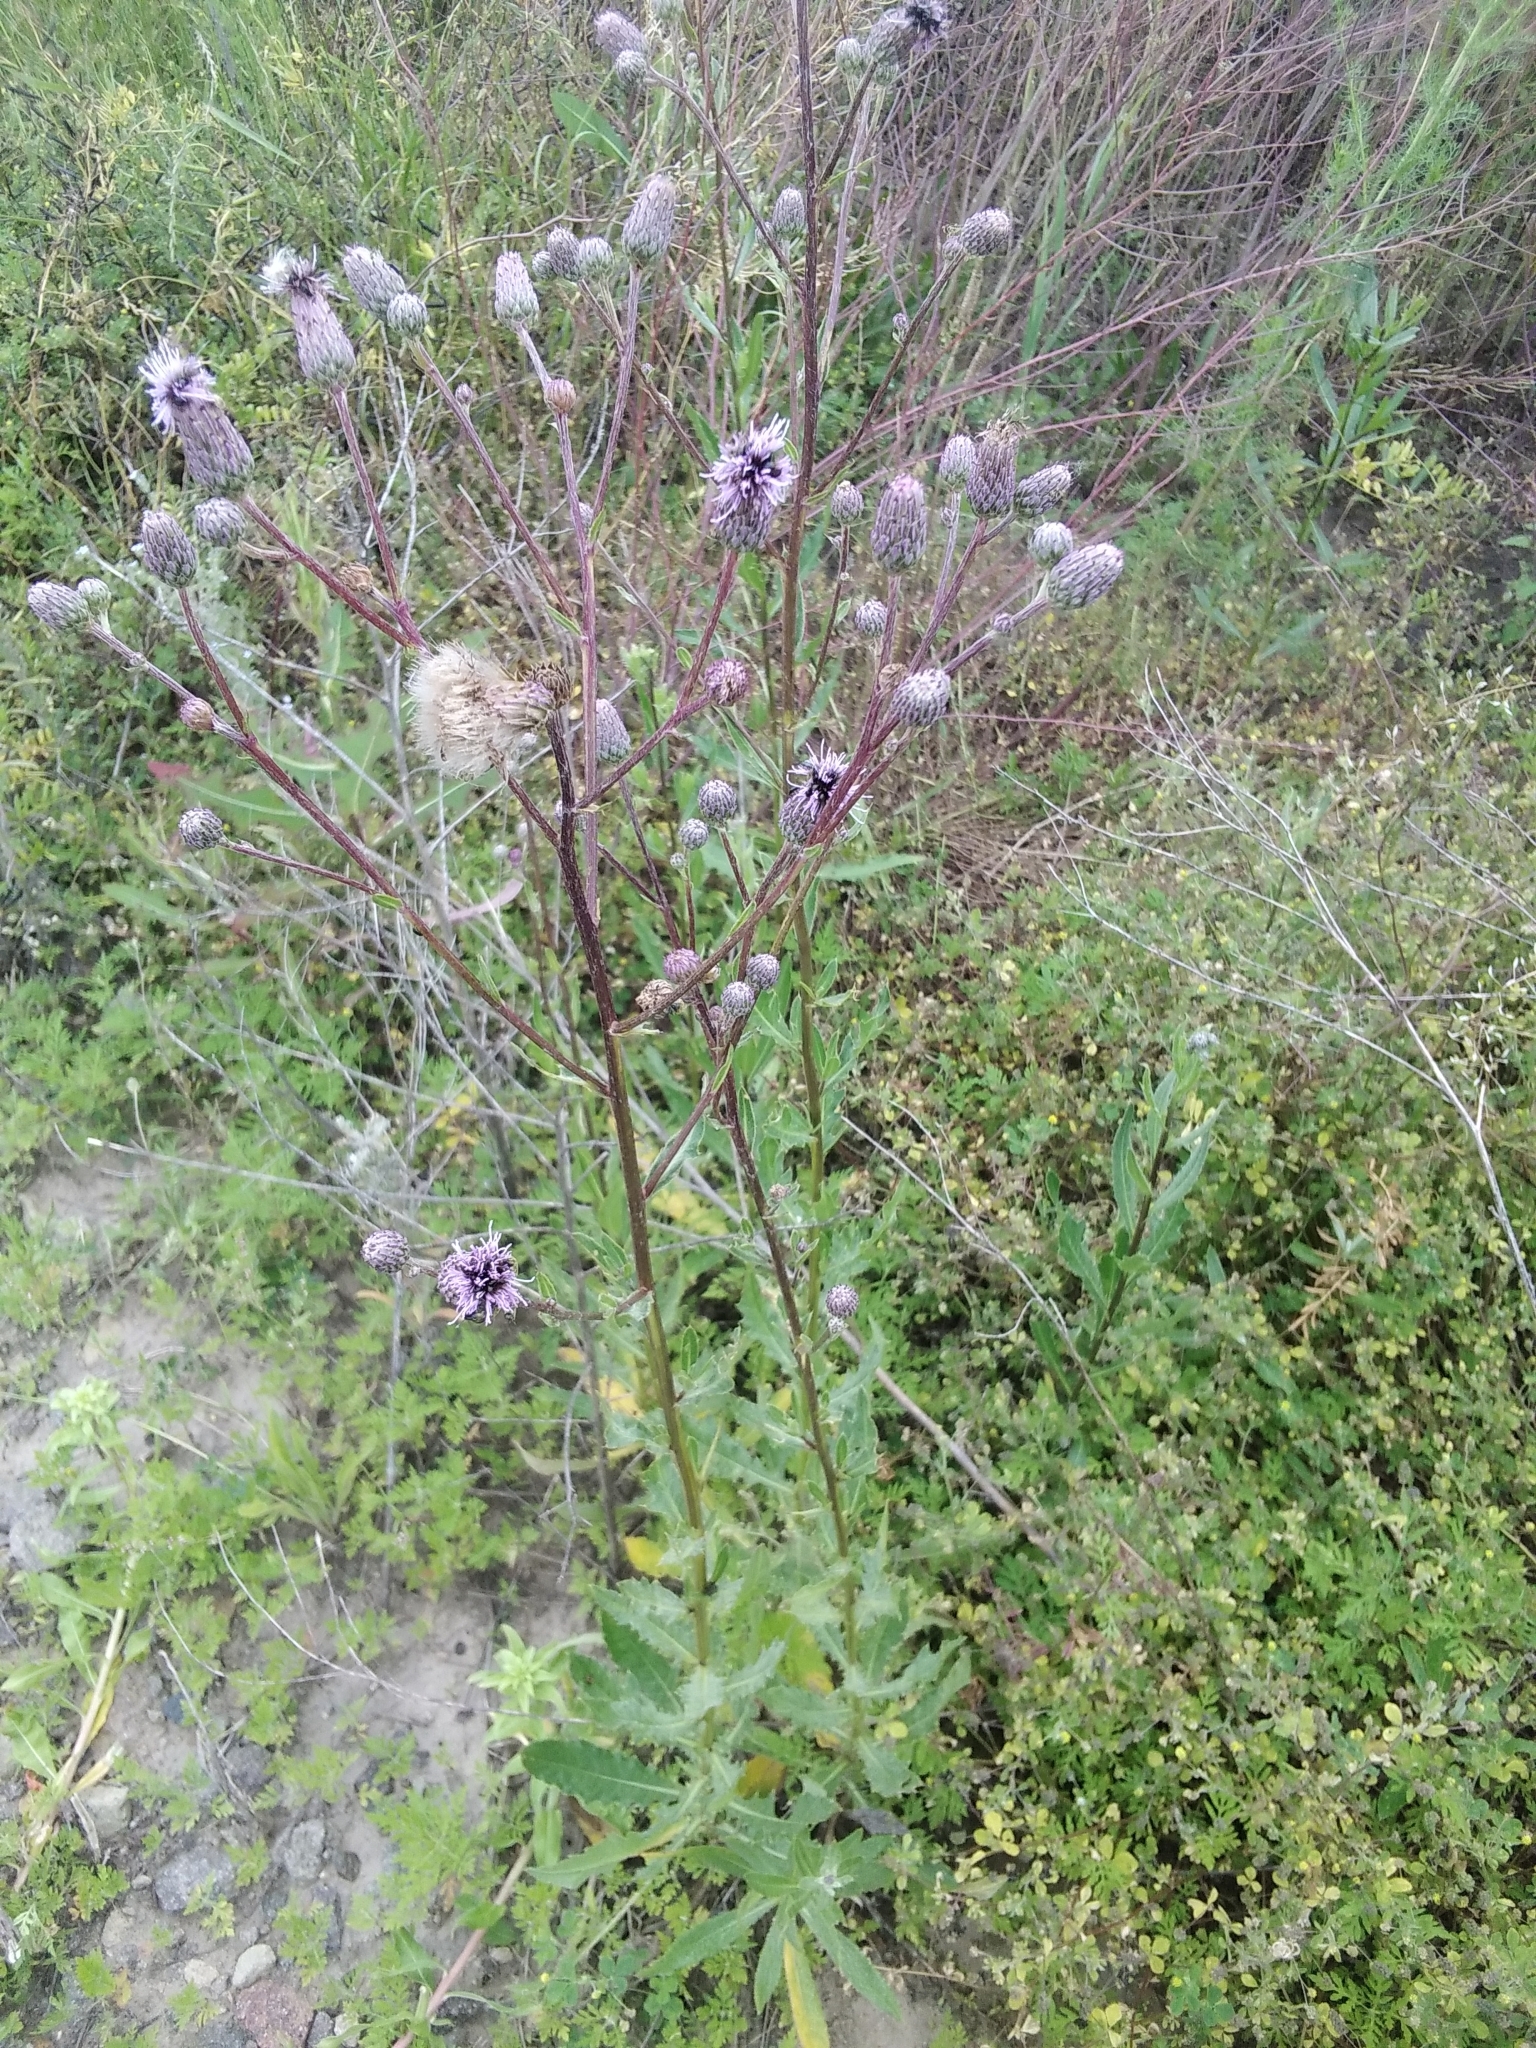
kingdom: Plantae
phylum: Tracheophyta
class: Magnoliopsida
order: Asterales
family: Asteraceae
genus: Cirsium
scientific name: Cirsium arvense
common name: Creeping thistle
